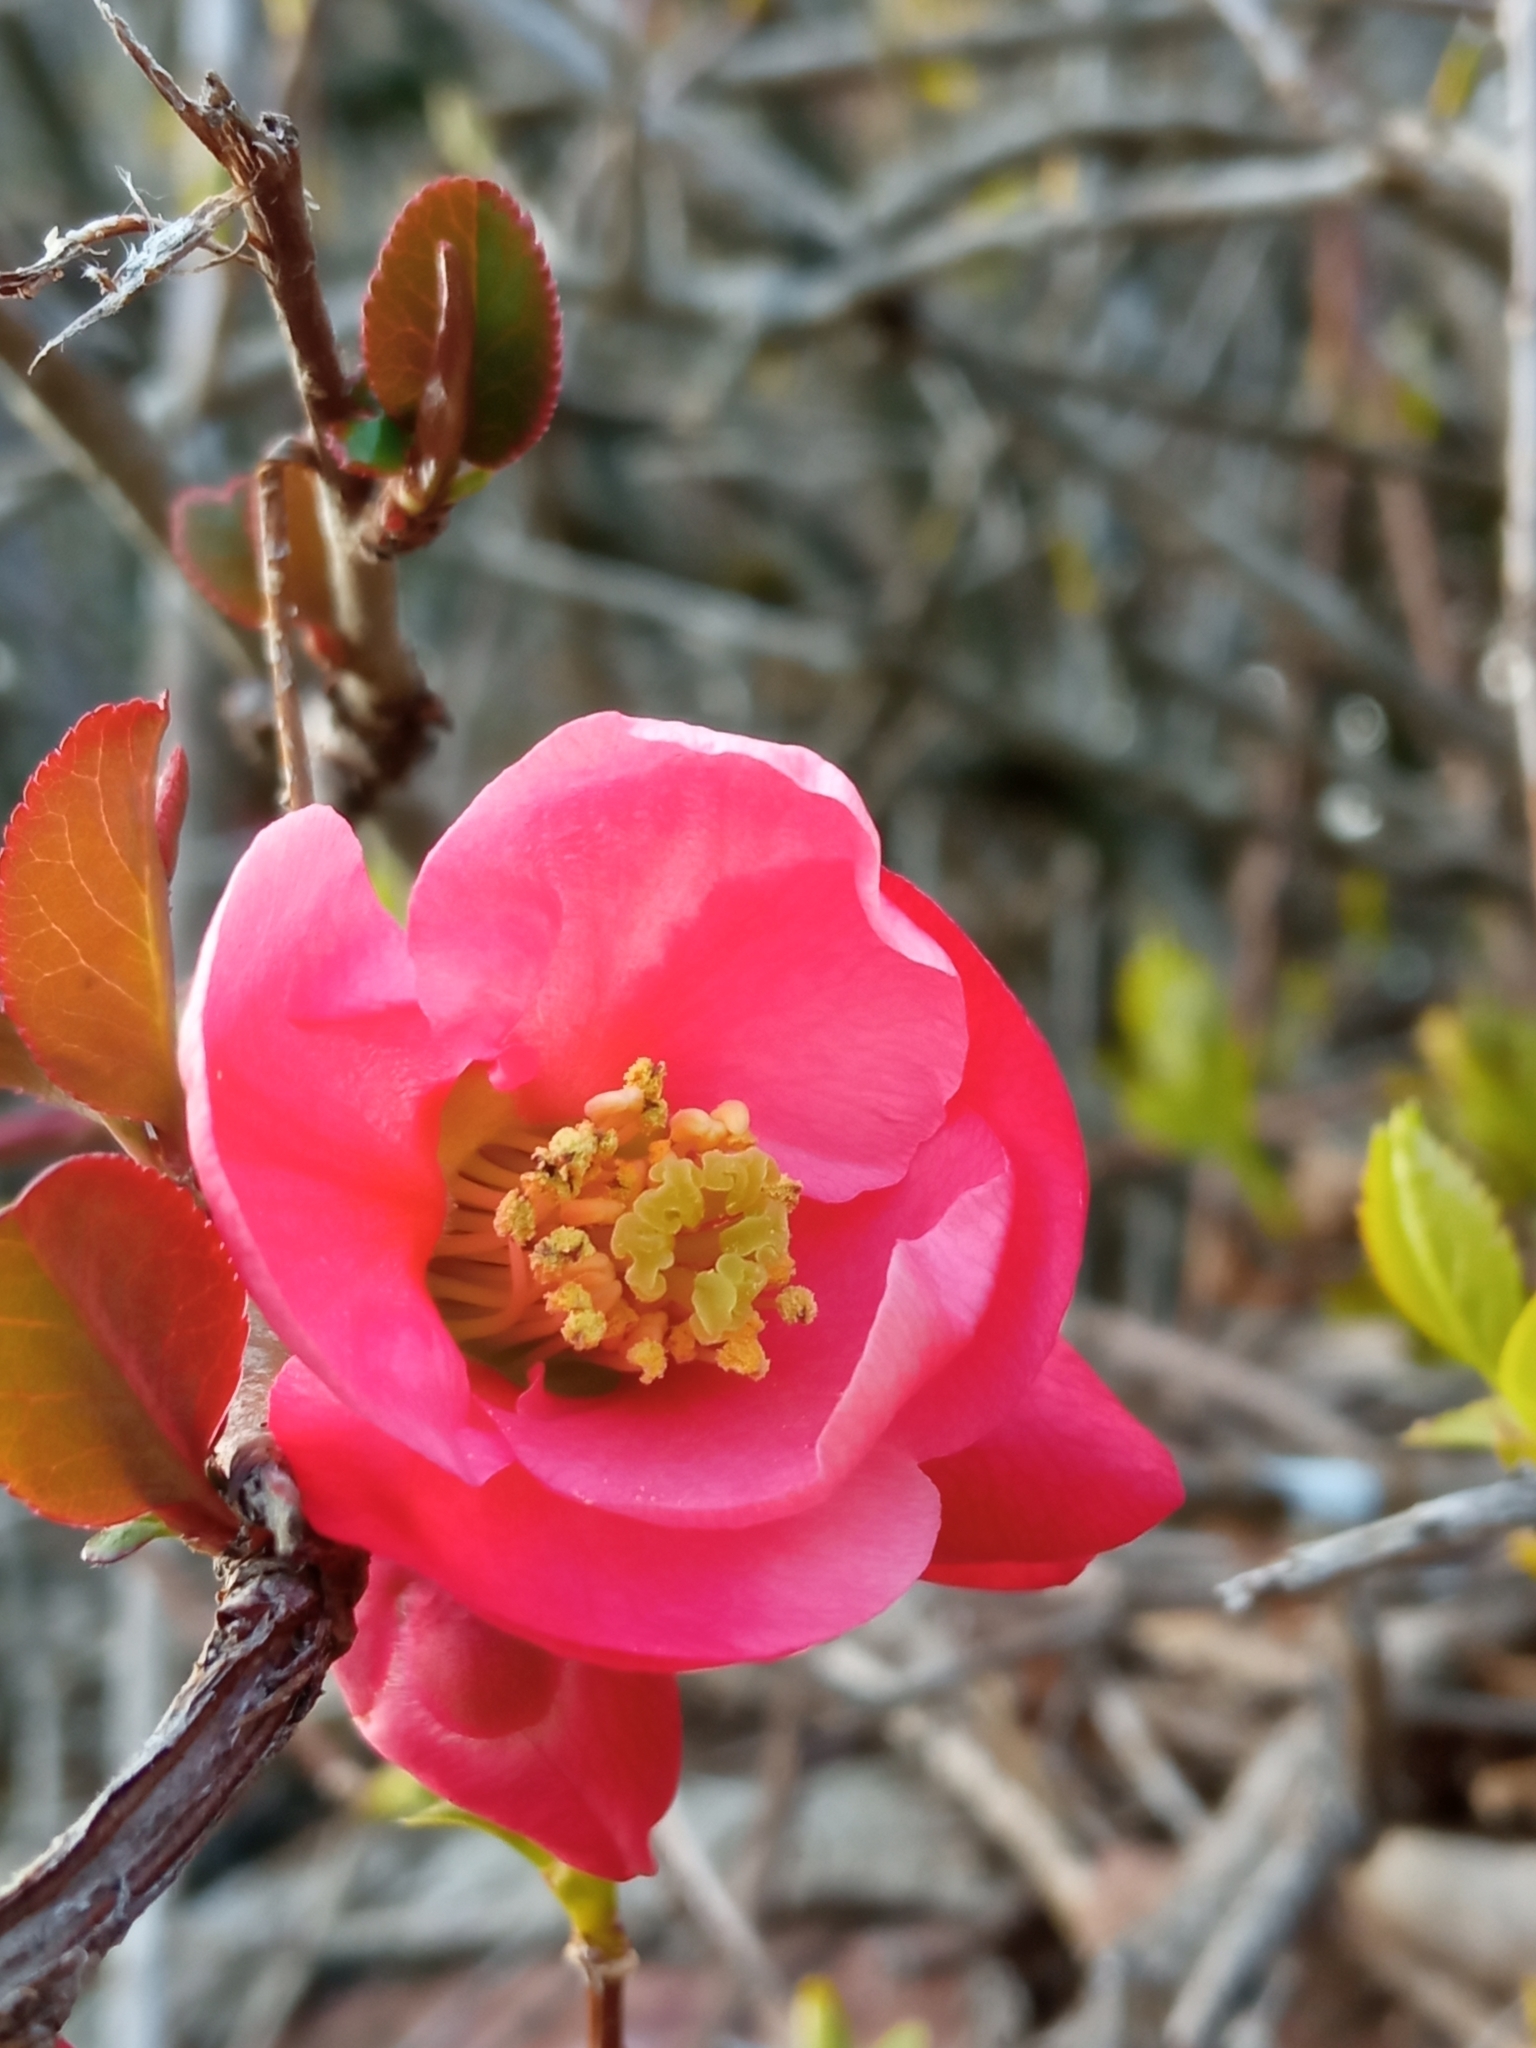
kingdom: Plantae
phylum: Tracheophyta
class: Magnoliopsida
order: Rosales
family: Rosaceae
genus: Chaenomeles
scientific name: Chaenomeles speciosa
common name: Japanese quince
